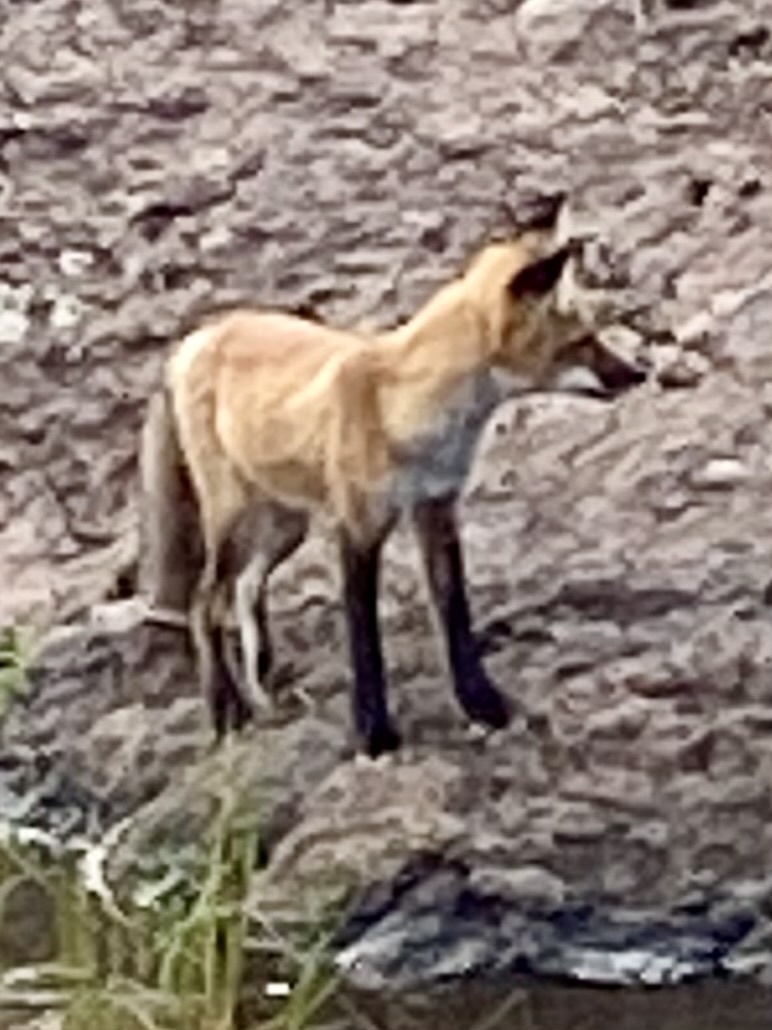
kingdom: Animalia
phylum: Chordata
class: Mammalia
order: Carnivora
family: Canidae
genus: Vulpes
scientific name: Vulpes vulpes
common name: Red fox
